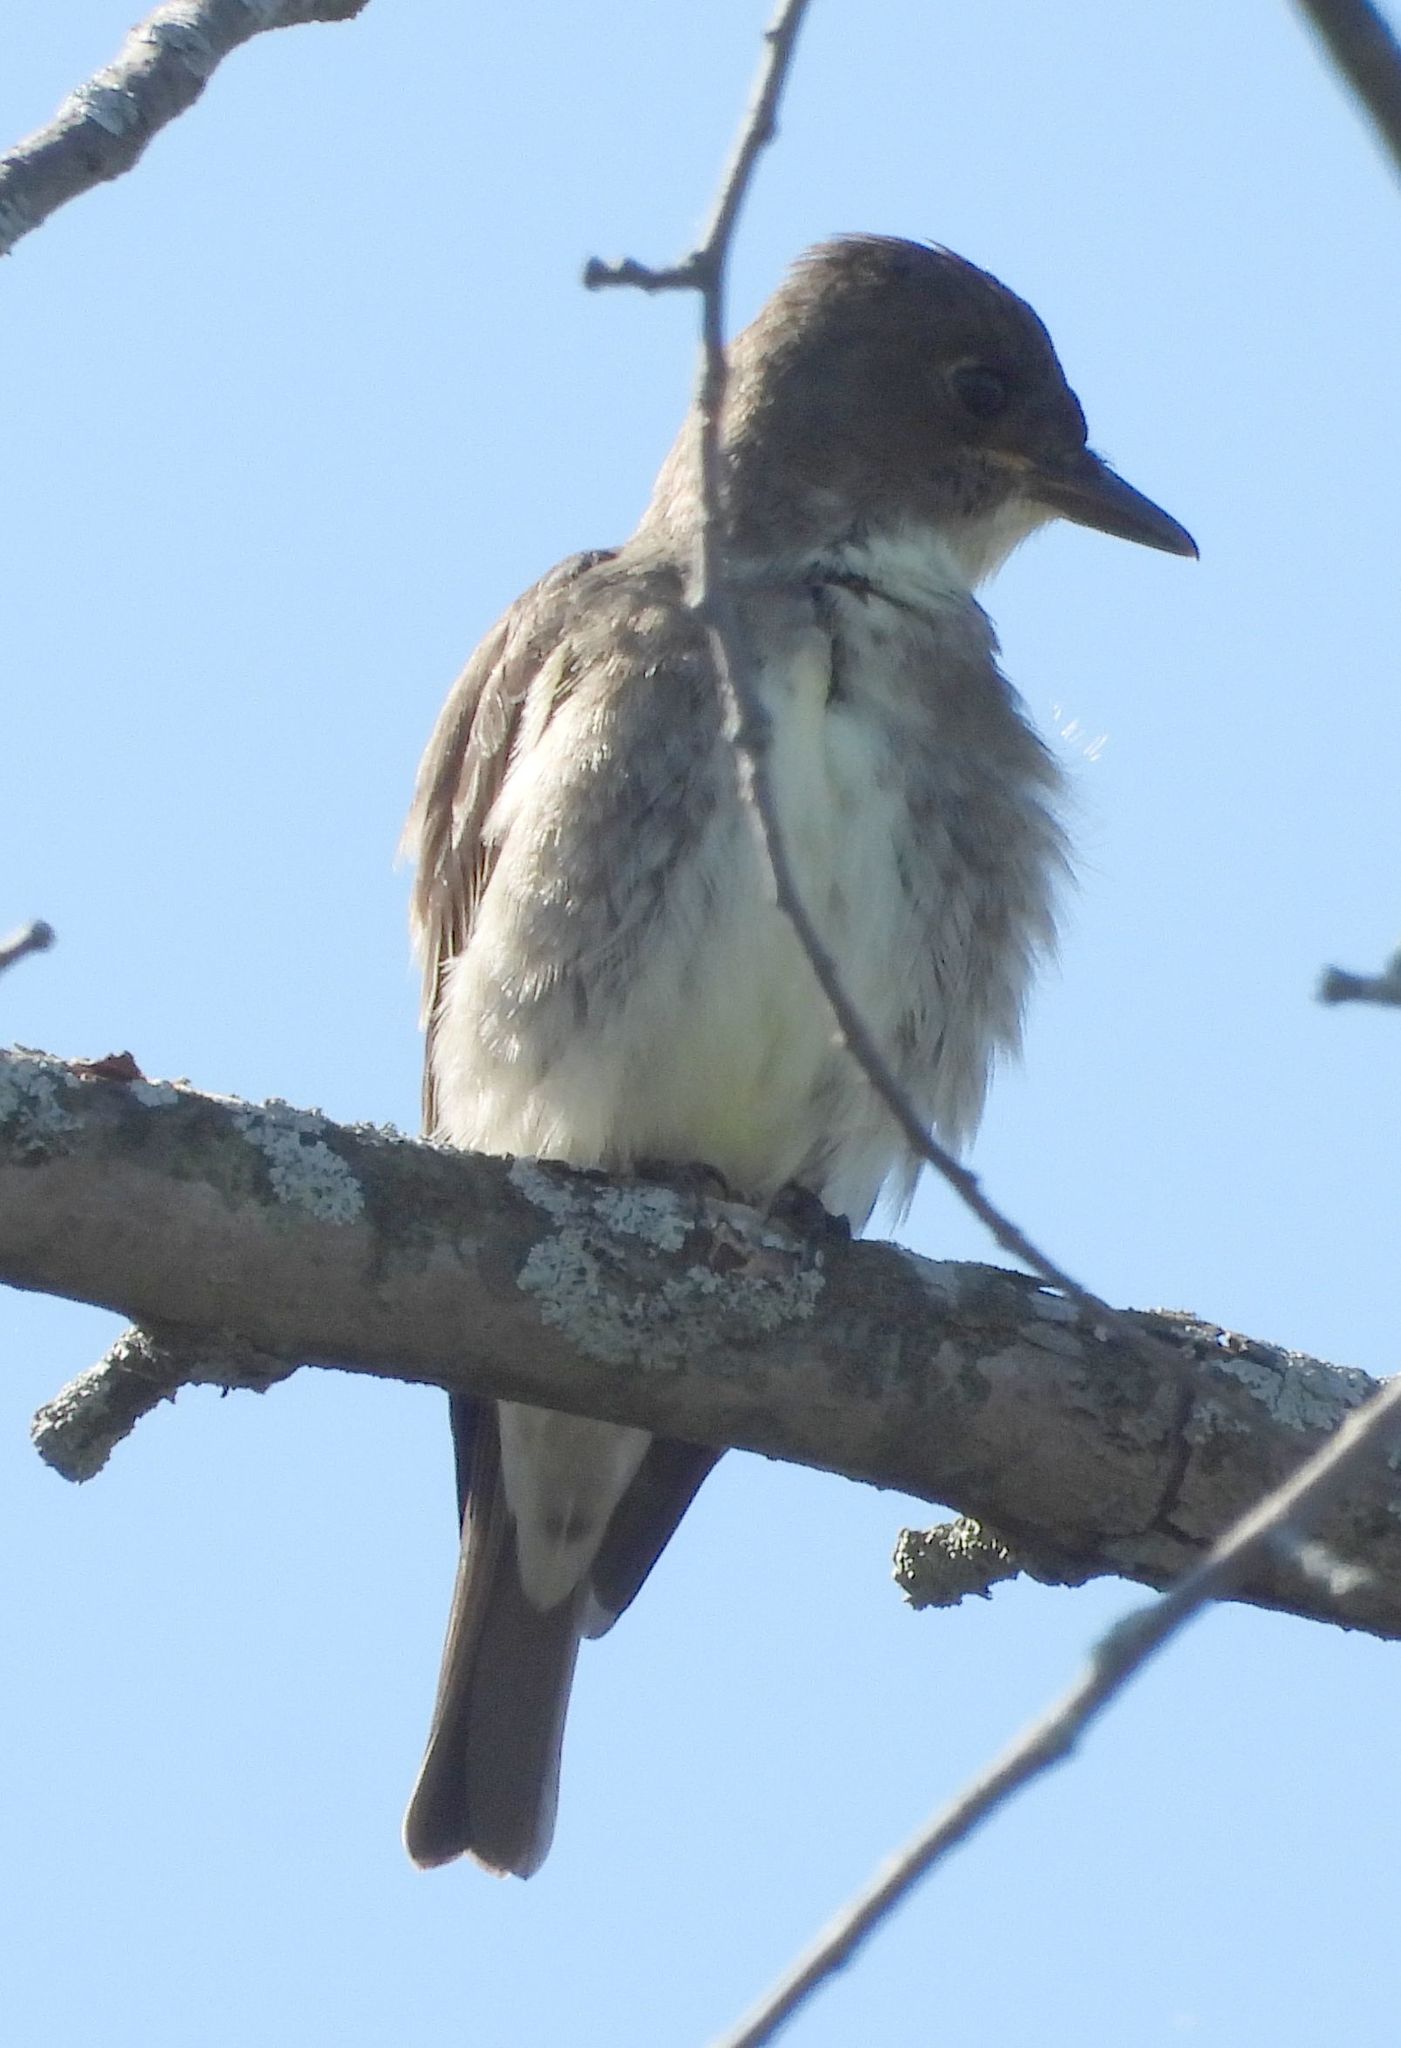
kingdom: Animalia
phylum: Chordata
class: Aves
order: Passeriformes
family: Tyrannidae
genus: Contopus
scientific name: Contopus cooperi
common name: Olive-sided flycatcher
